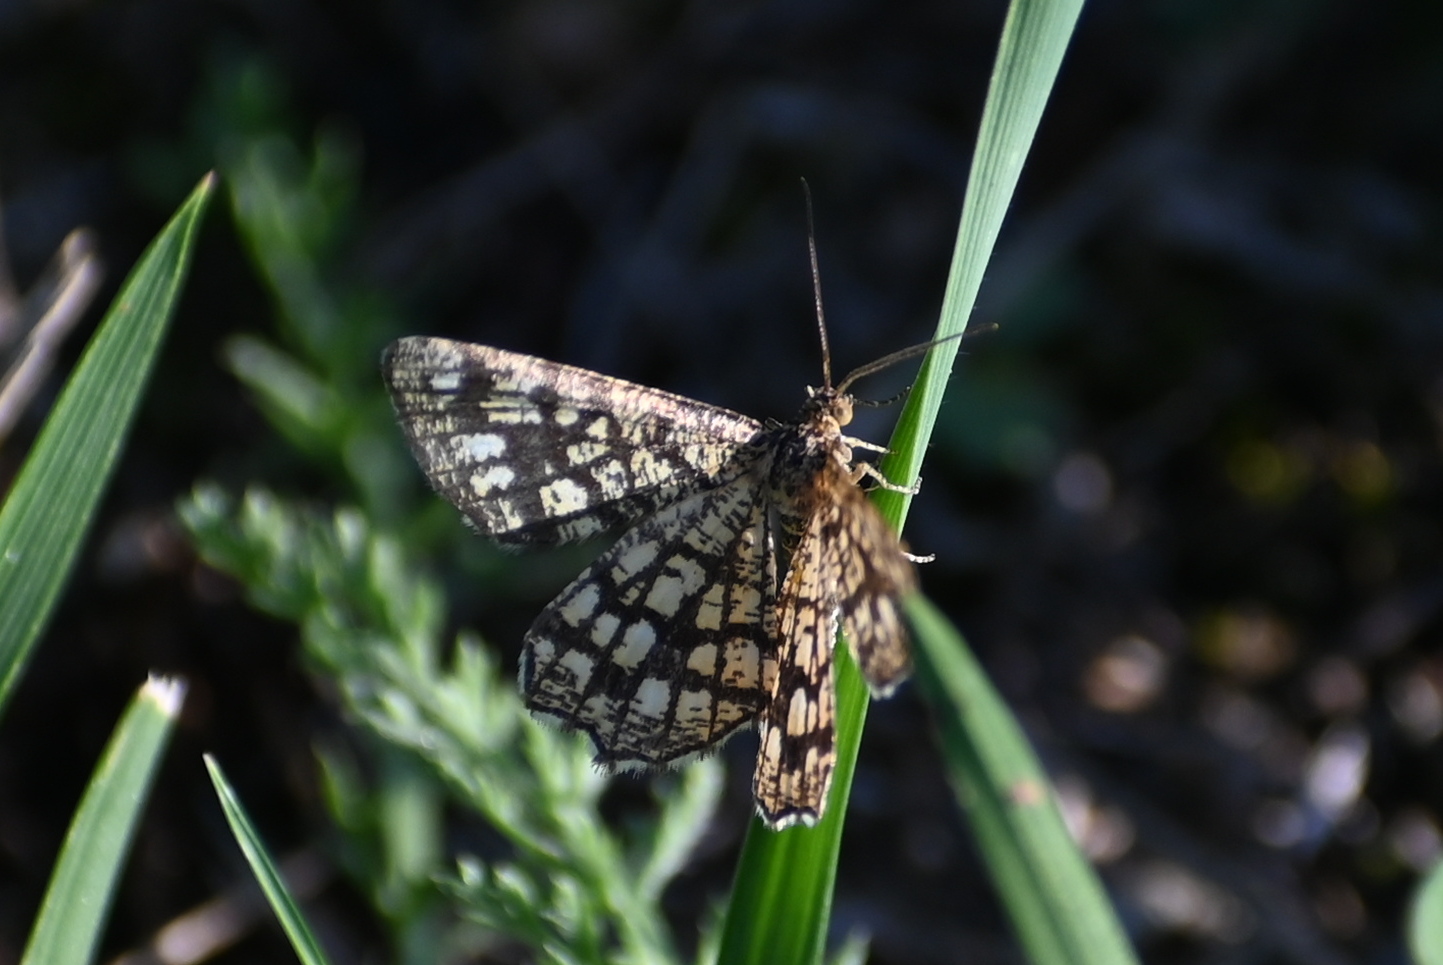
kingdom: Animalia
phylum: Arthropoda
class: Insecta
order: Lepidoptera
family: Geometridae
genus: Chiasmia
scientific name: Chiasmia clathrata
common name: Latticed heath
